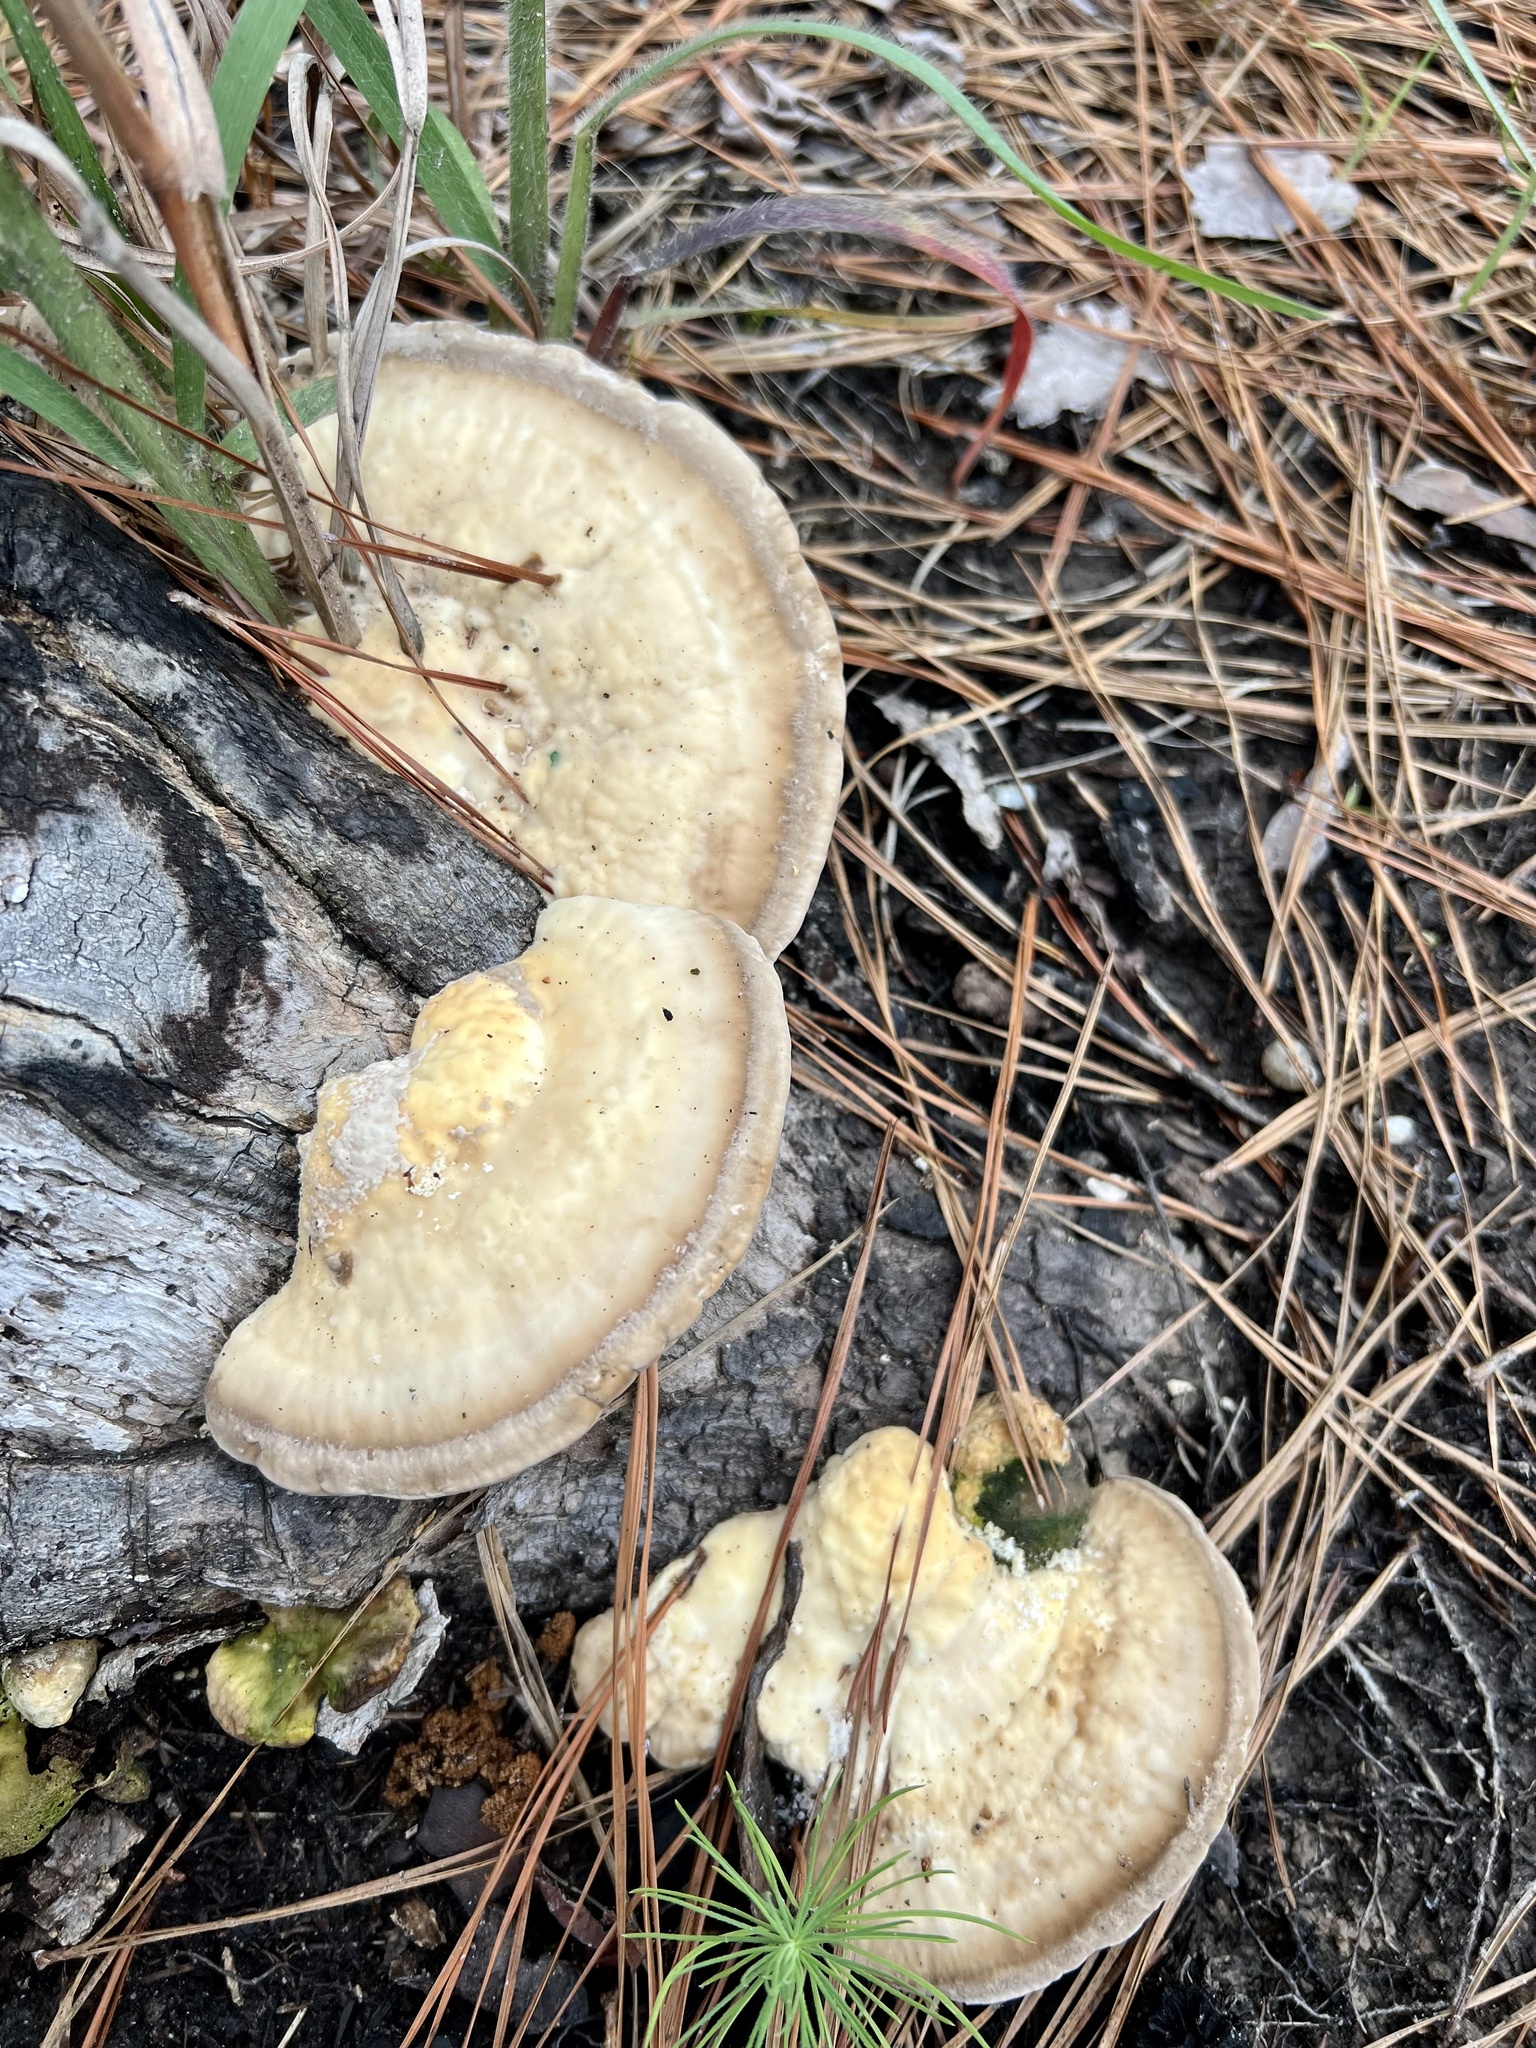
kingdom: Fungi
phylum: Basidiomycota
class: Agaricomycetes
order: Polyporales
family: Polyporaceae
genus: Trametes
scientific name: Trametes lactinea
